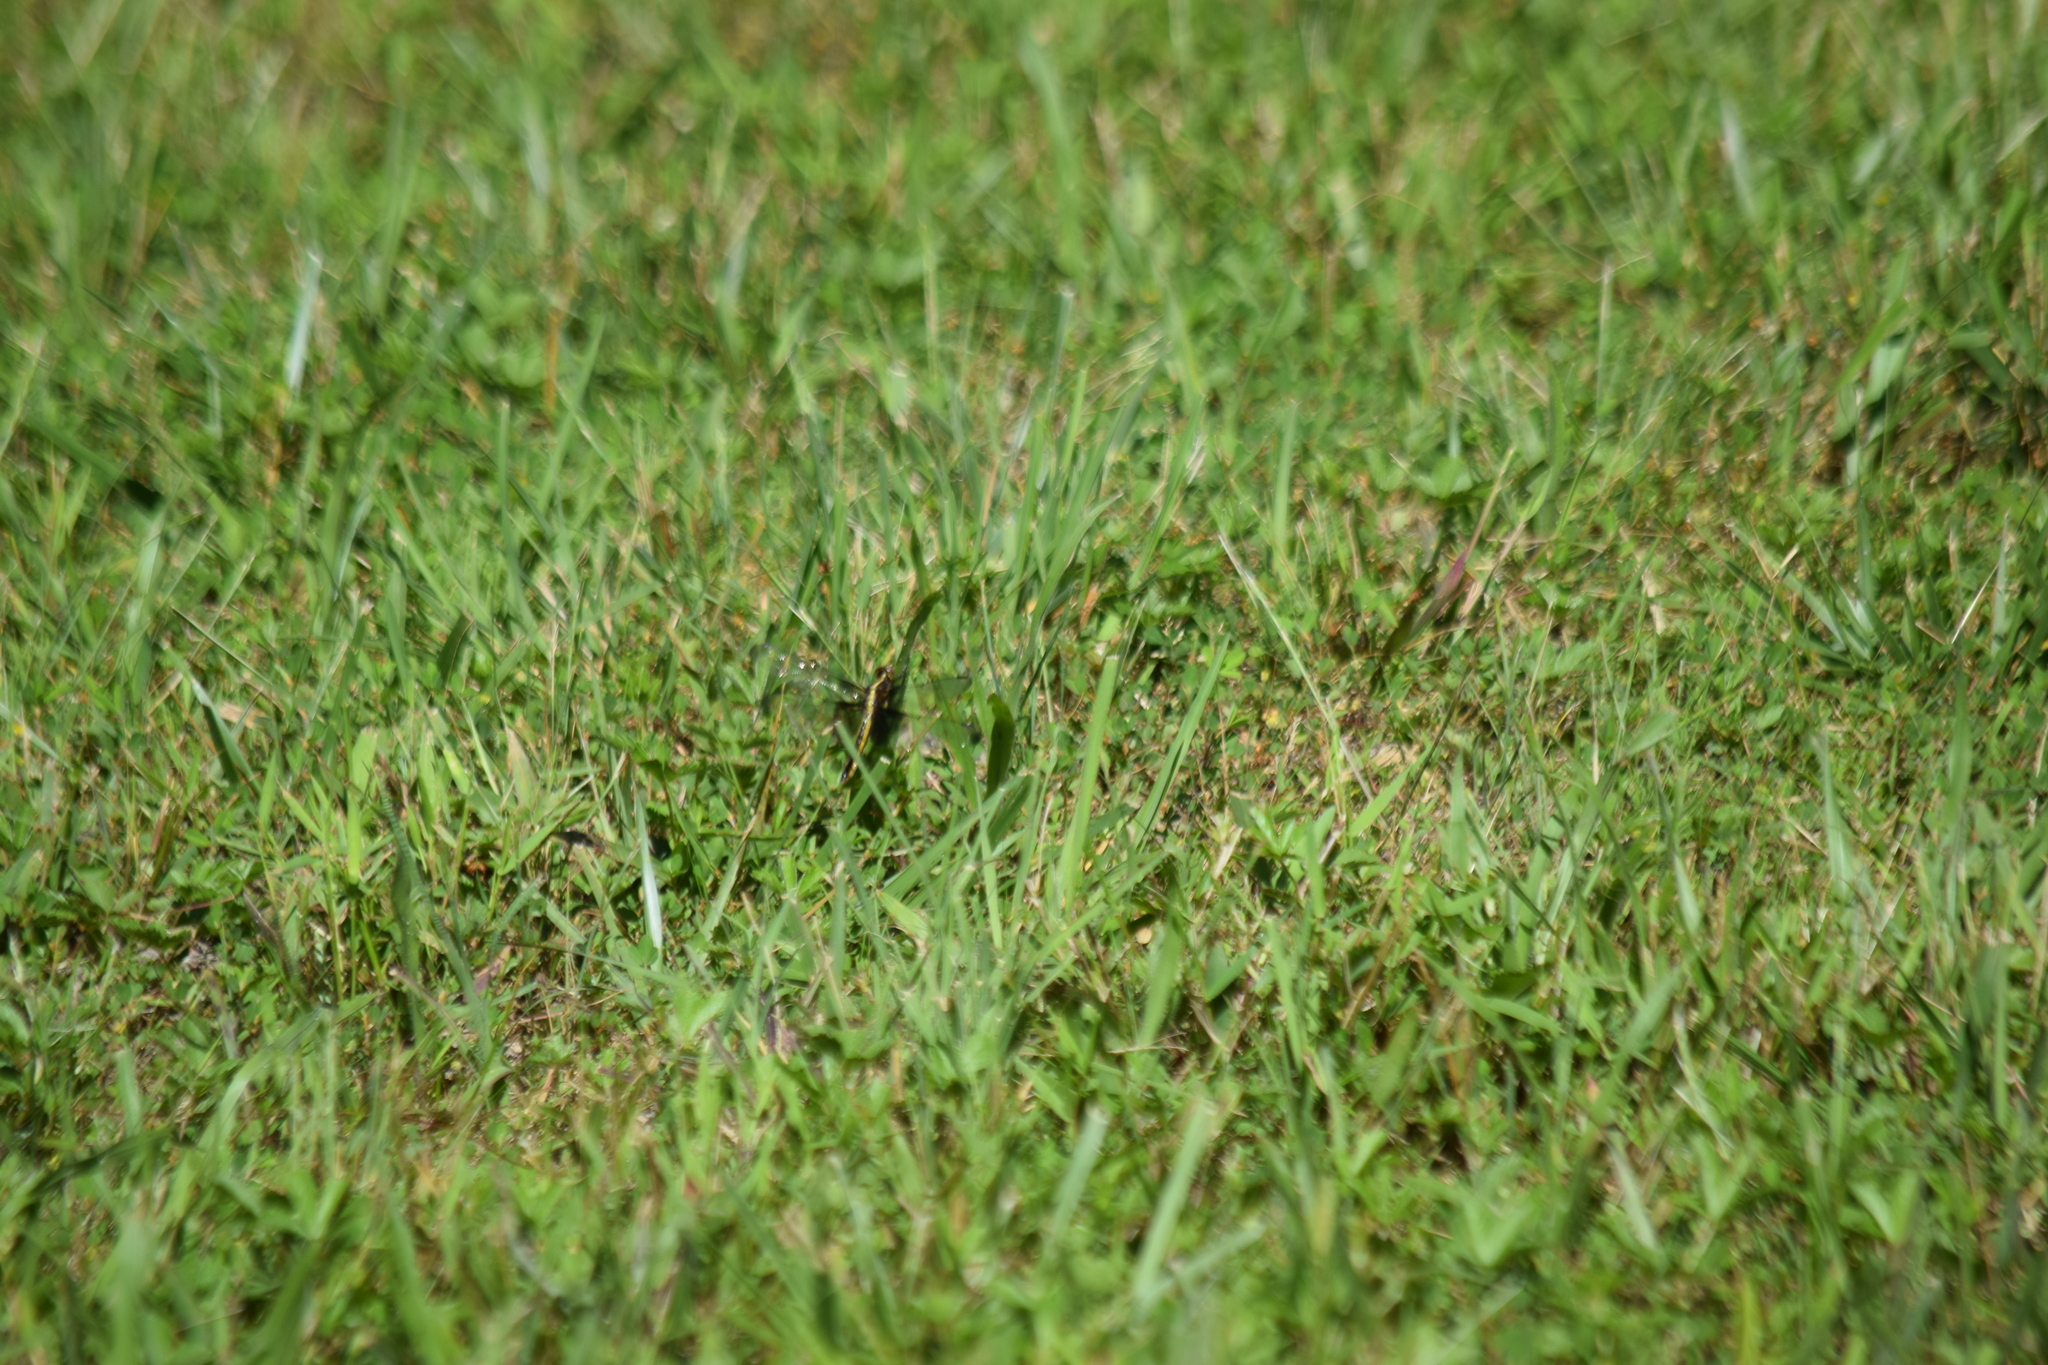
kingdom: Animalia
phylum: Arthropoda
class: Insecta
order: Odonata
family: Libellulidae
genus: Libellula
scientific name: Libellula luctuosa
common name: Widow skimmer
